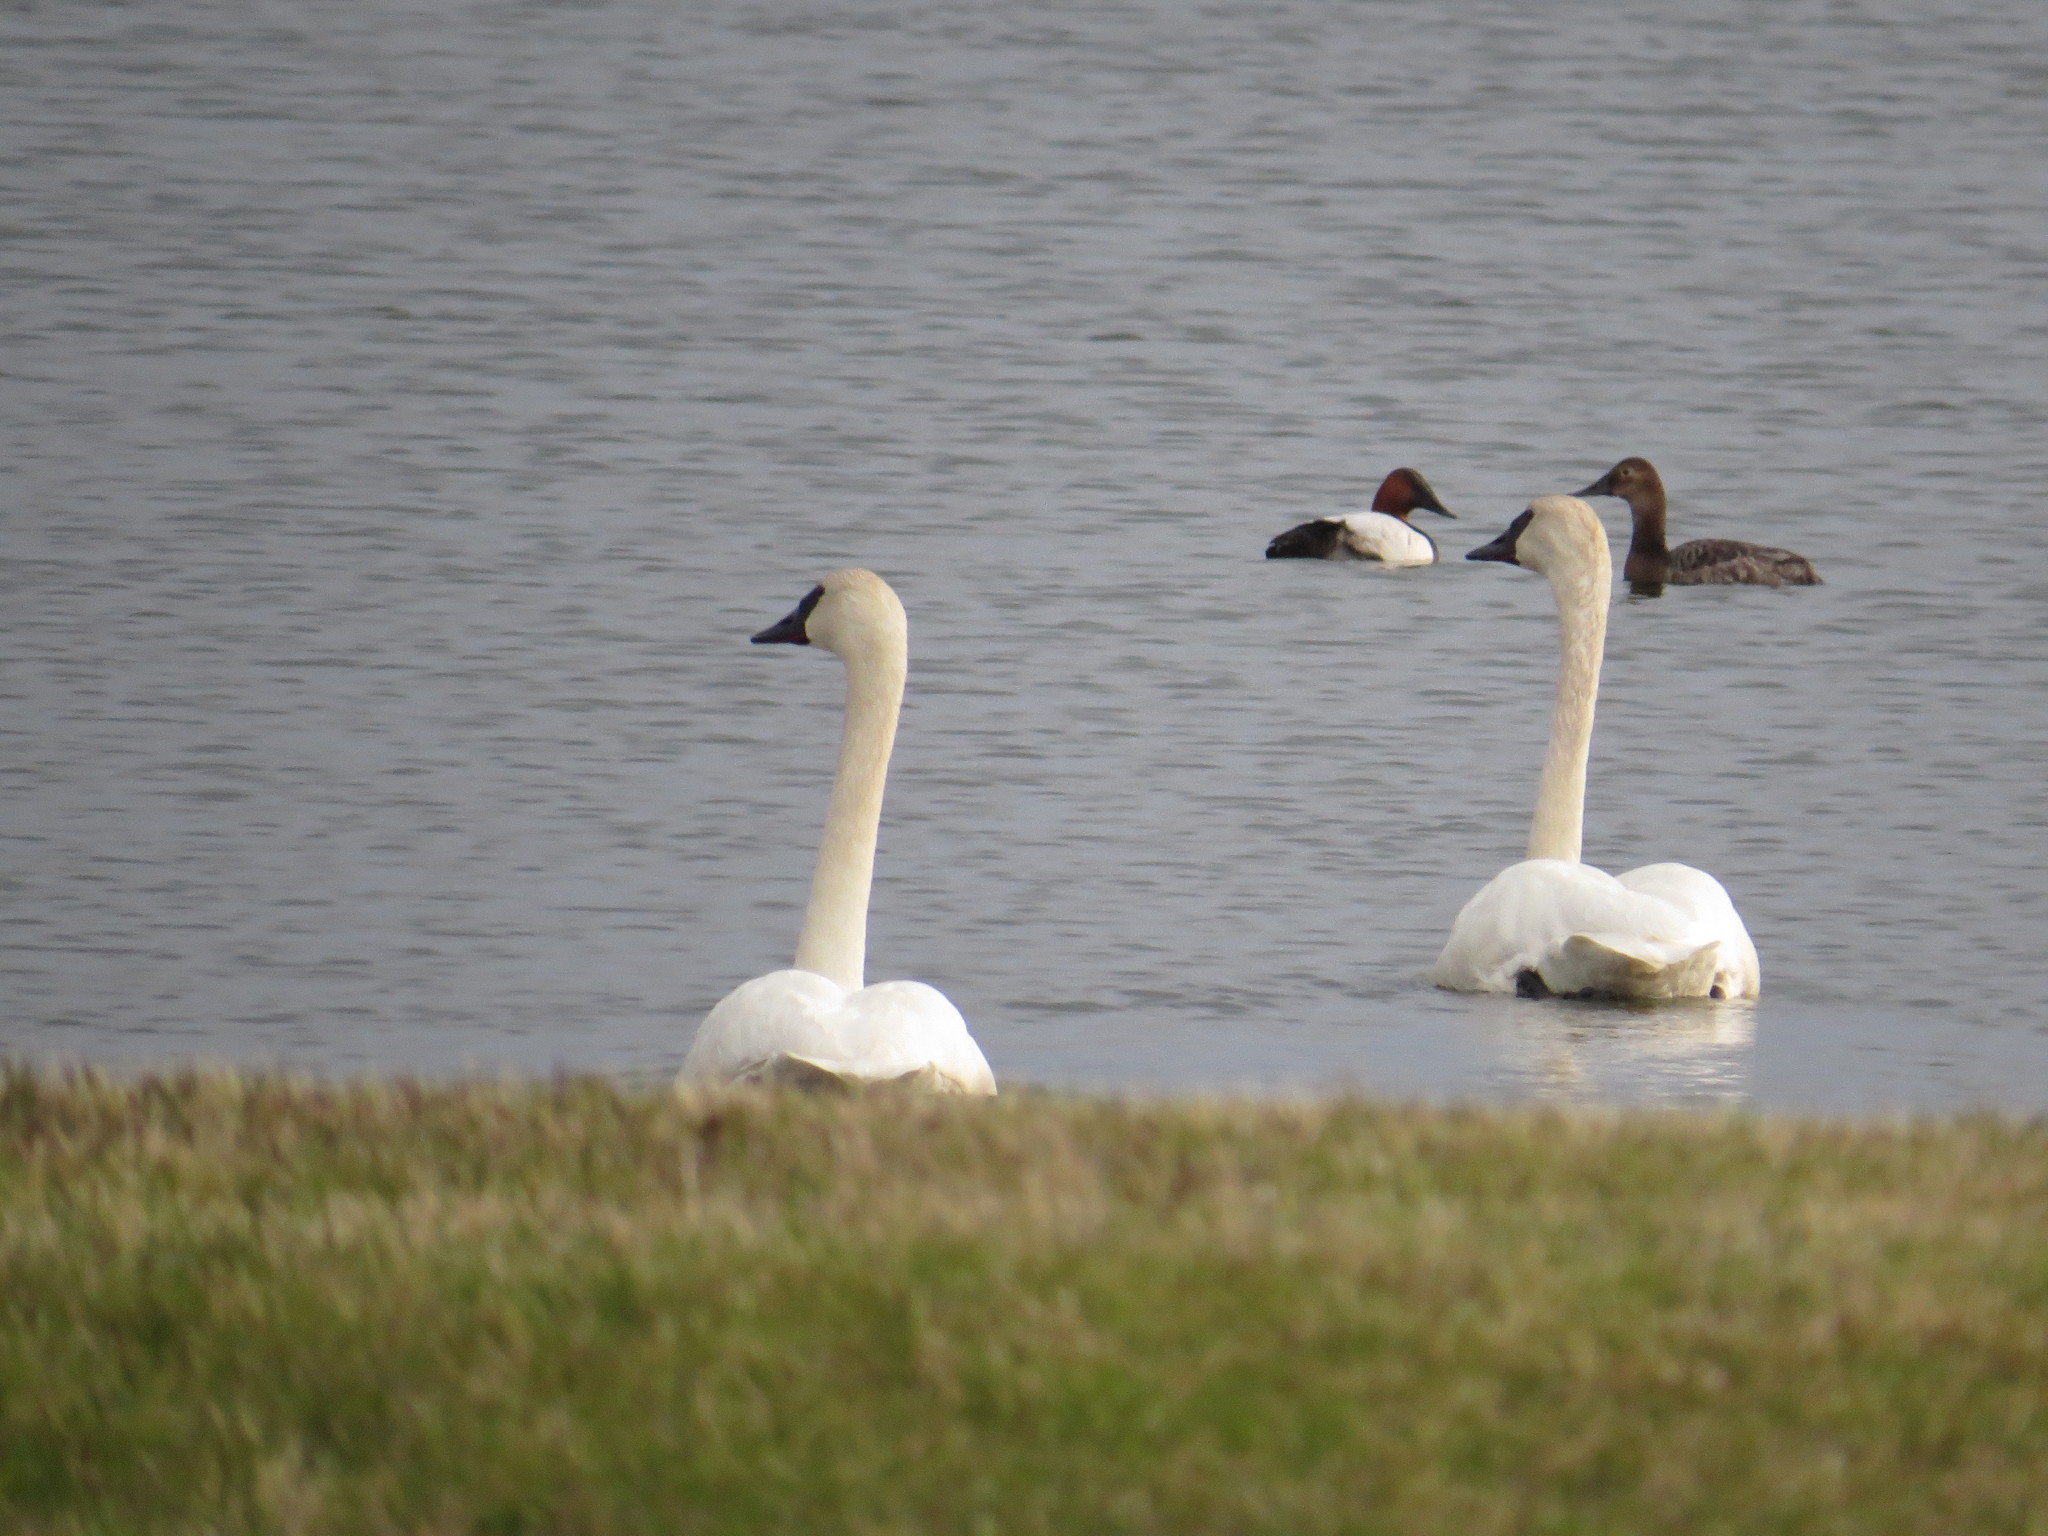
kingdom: Animalia
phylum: Chordata
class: Aves
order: Anseriformes
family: Anatidae
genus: Cygnus
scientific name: Cygnus buccinator
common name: Trumpeter swan
